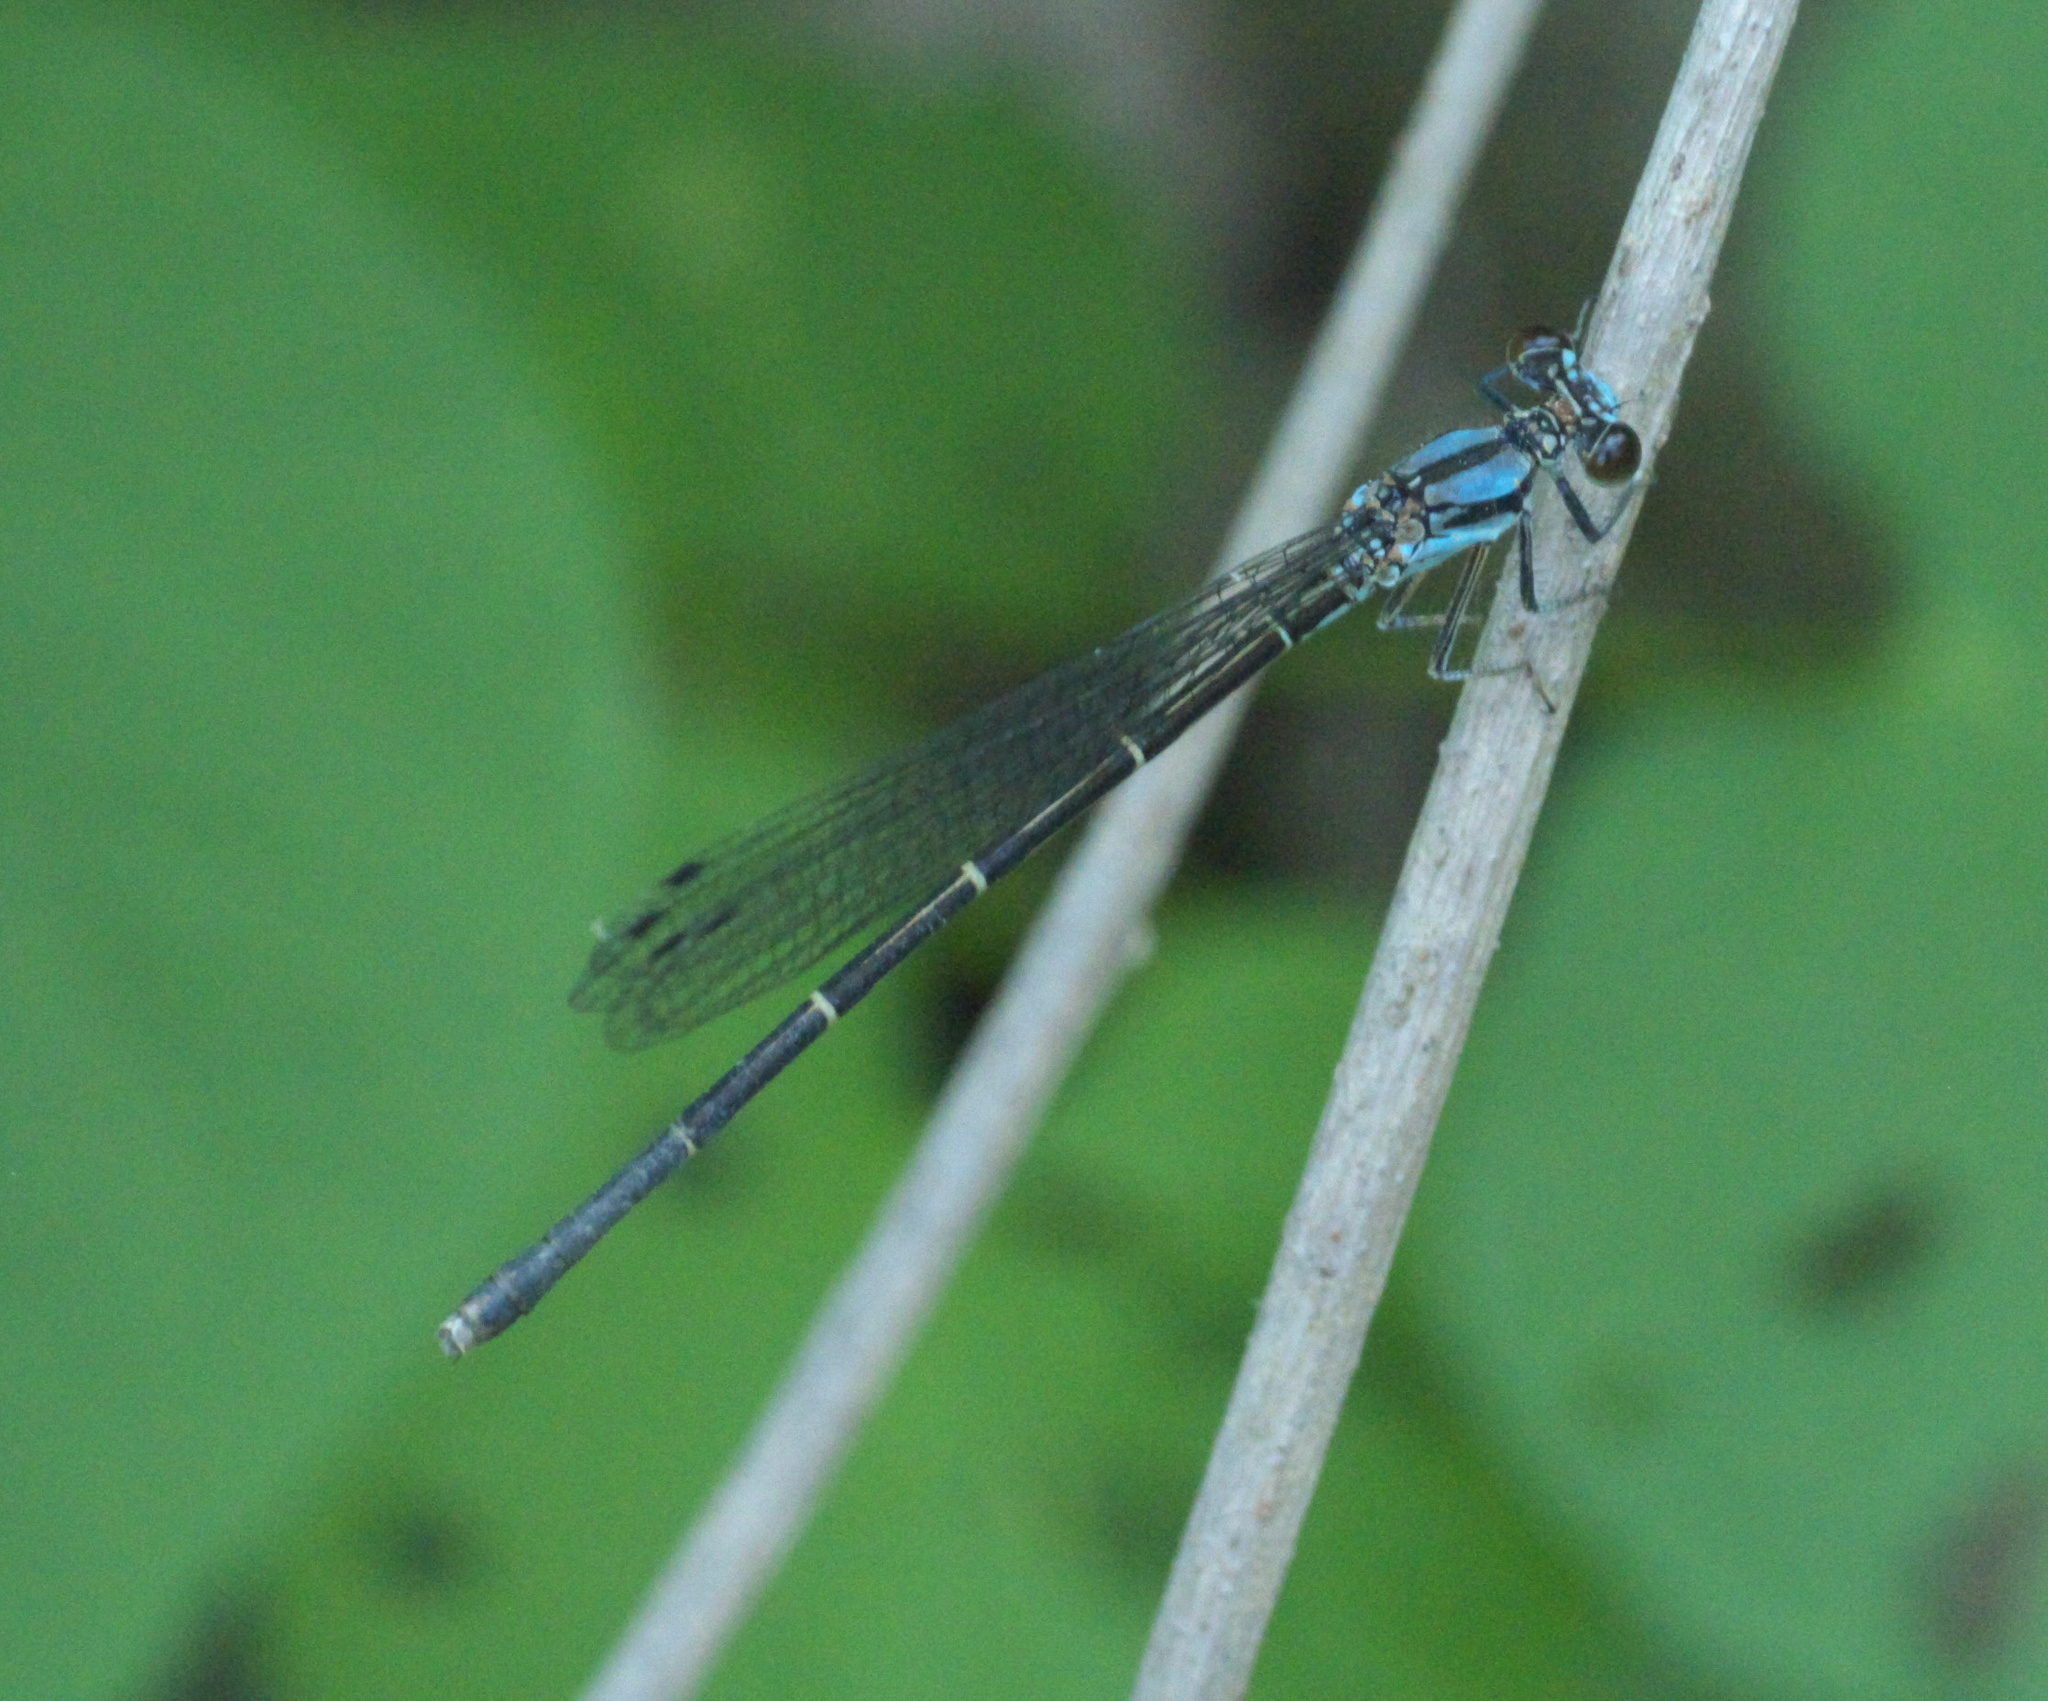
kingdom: Animalia
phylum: Arthropoda
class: Insecta
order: Odonata
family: Coenagrionidae
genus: Argia
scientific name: Argia tibialis
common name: Blue-tipped dancer
